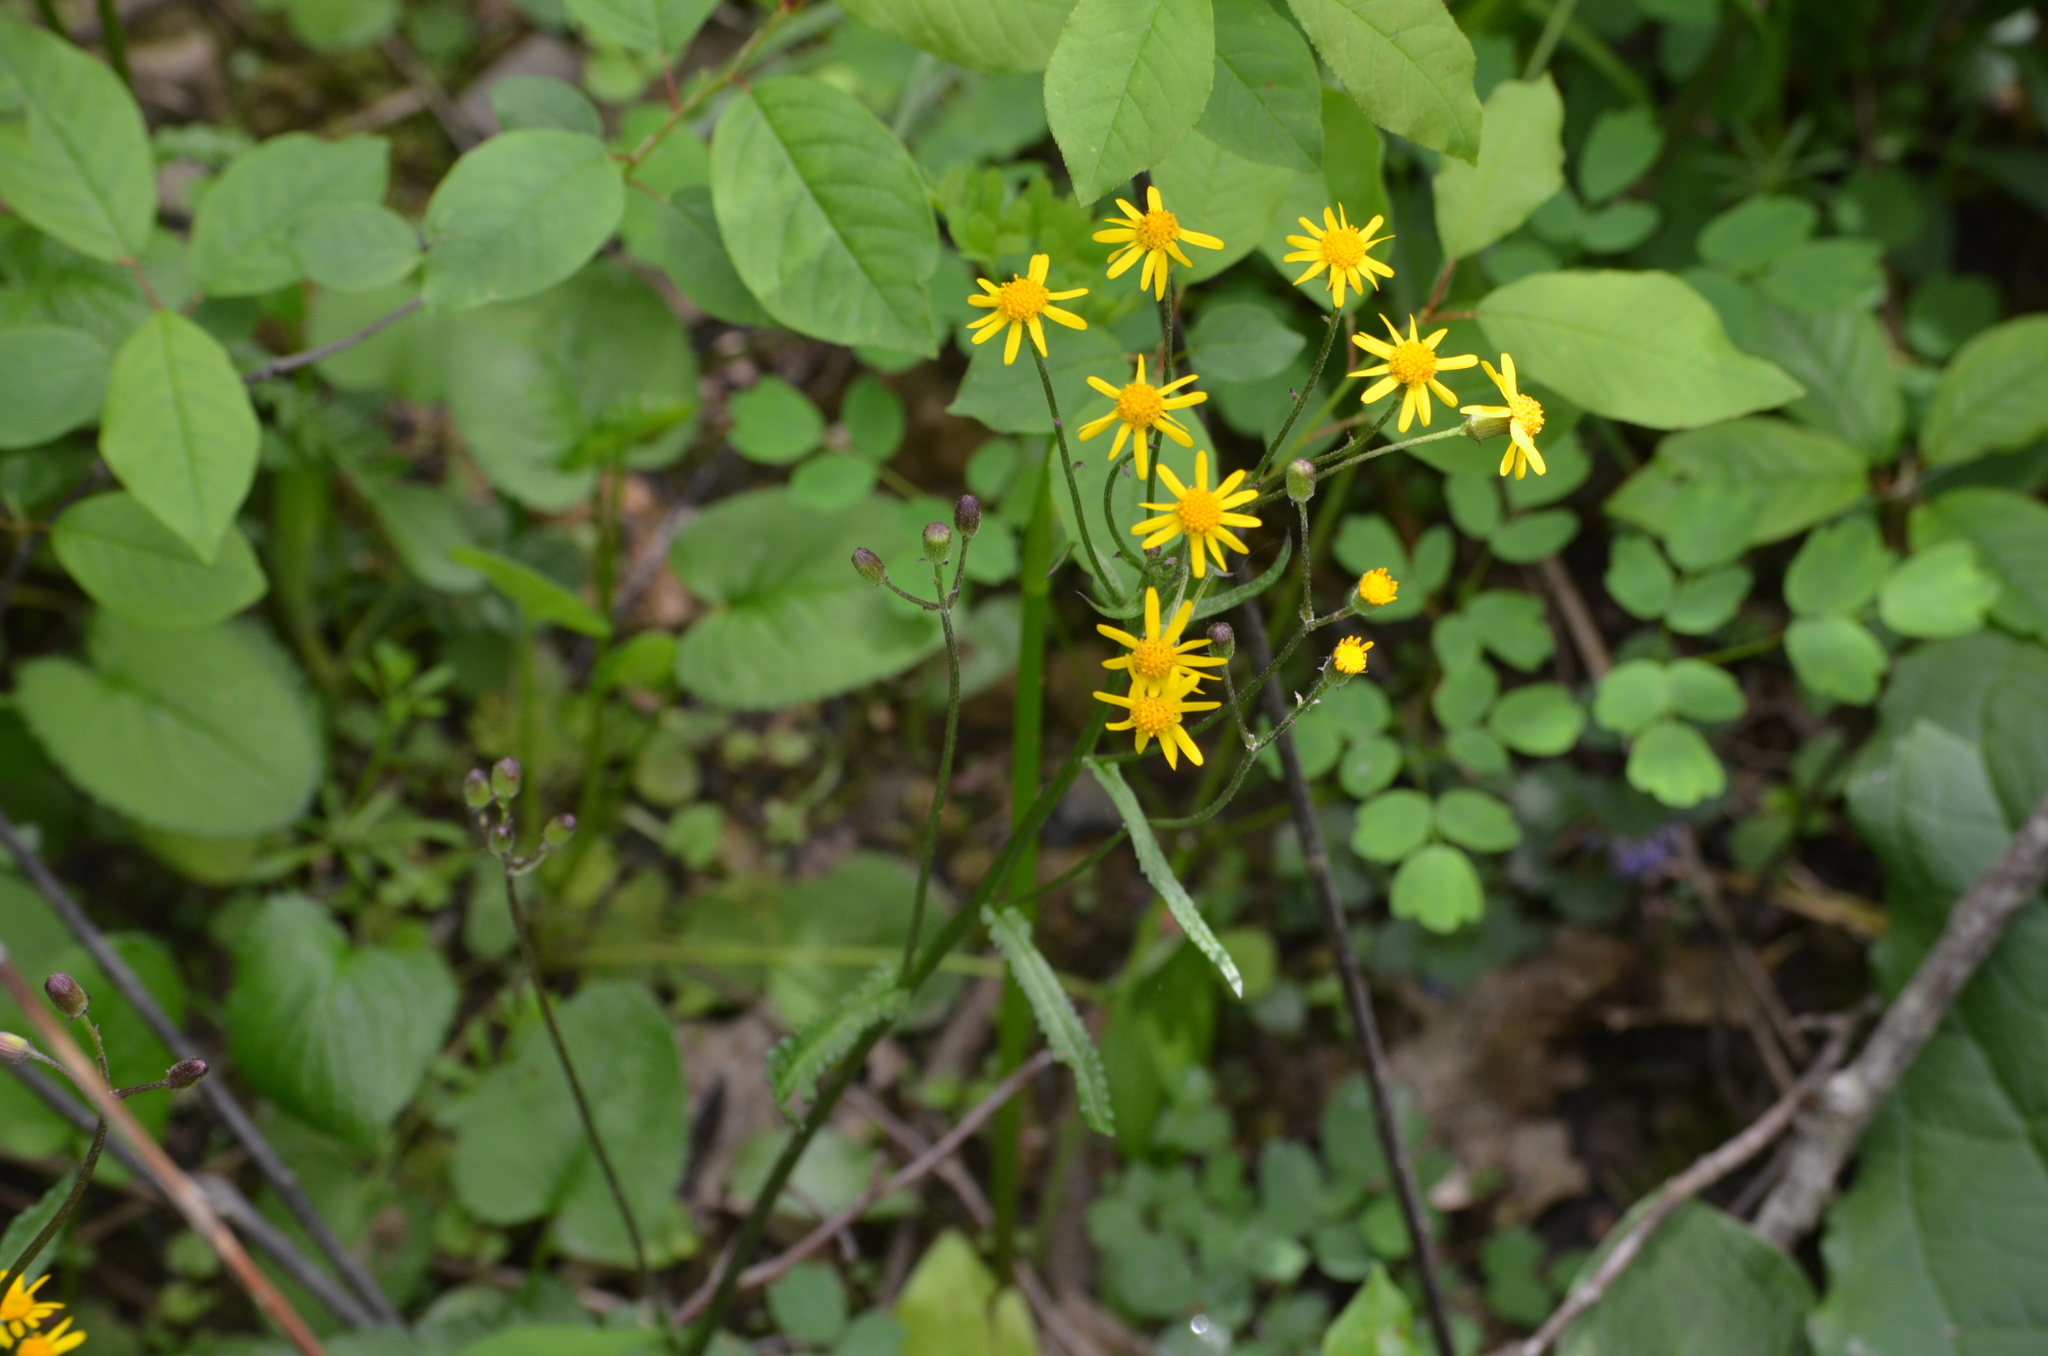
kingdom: Plantae
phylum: Tracheophyta
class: Magnoliopsida
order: Asterales
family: Asteraceae
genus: Packera
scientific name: Packera aurea
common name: Golden groundsel
